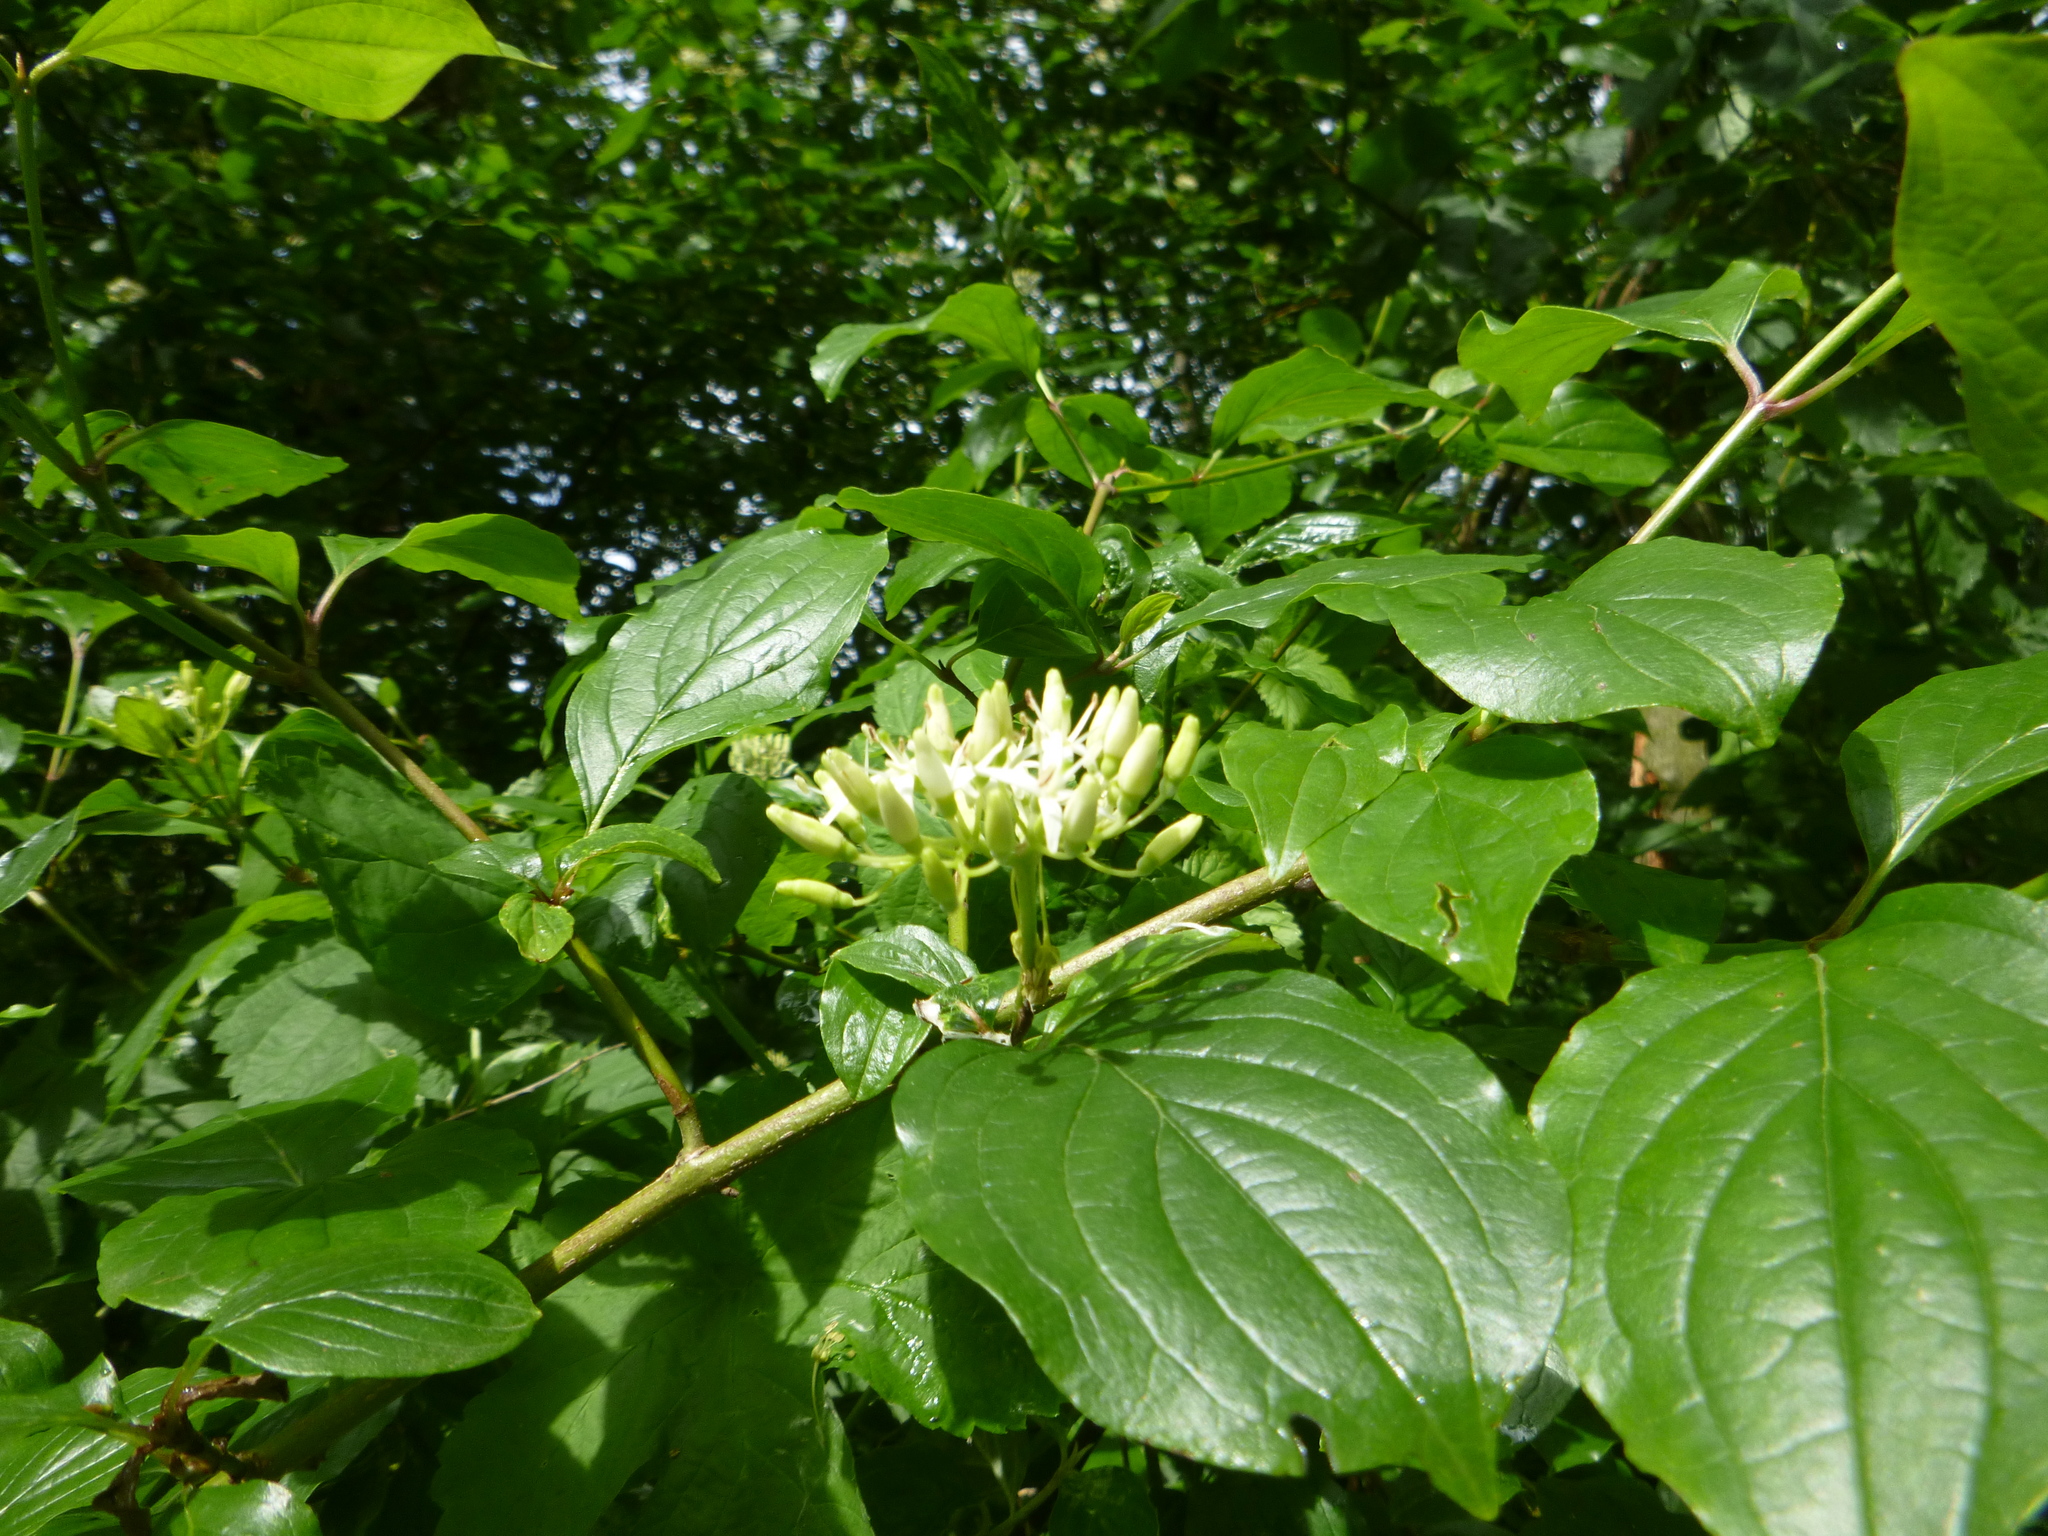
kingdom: Plantae
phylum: Tracheophyta
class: Magnoliopsida
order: Cornales
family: Cornaceae
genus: Cornus
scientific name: Cornus sanguinea
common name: Dogwood
